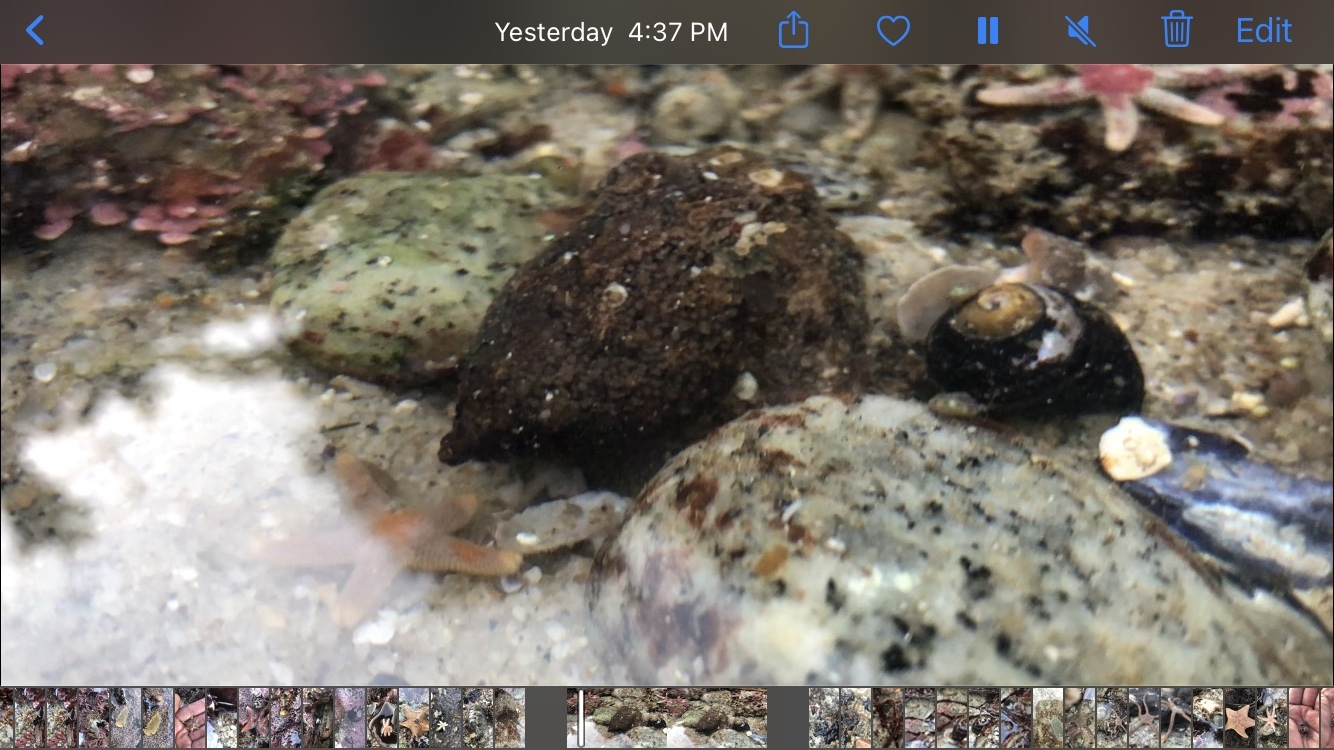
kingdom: Animalia
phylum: Mollusca
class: Cephalopoda
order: Octopoda
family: Octopodidae
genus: Octopus
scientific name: Octopus rubescens
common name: East pacific red octopus
